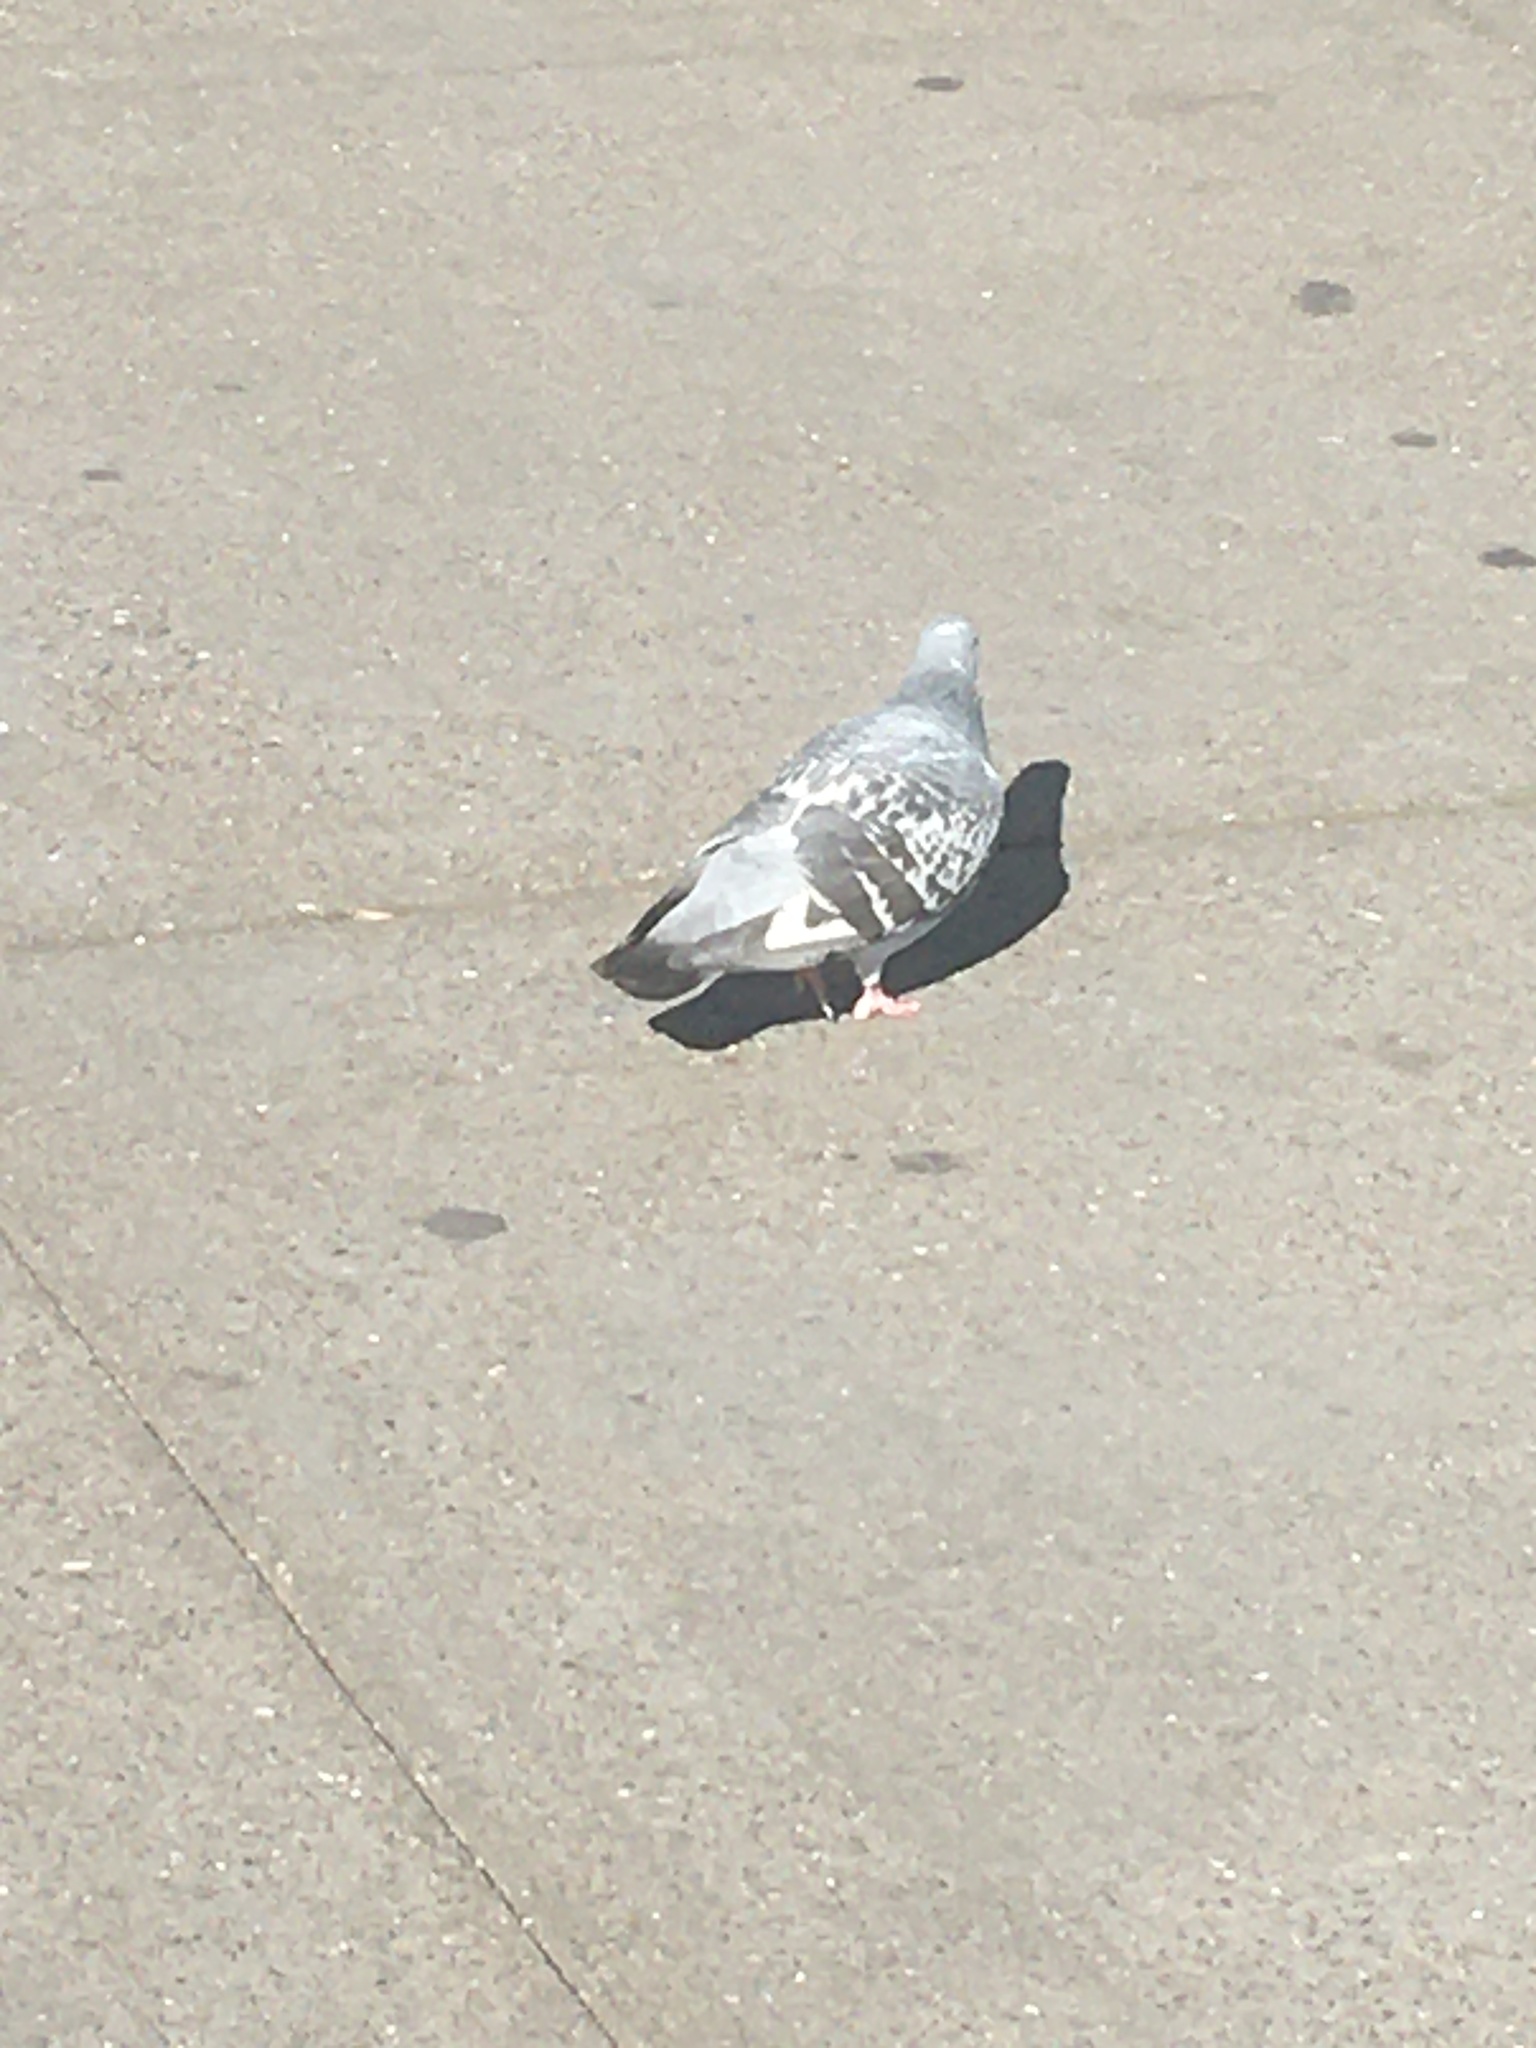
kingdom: Animalia
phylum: Chordata
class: Aves
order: Columbiformes
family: Columbidae
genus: Columba
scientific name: Columba livia
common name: Rock pigeon
